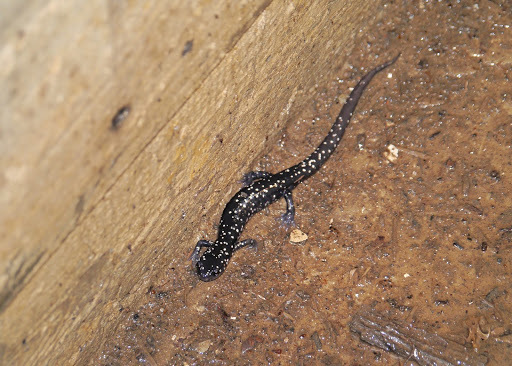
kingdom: Animalia
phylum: Chordata
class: Amphibia
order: Caudata
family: Plethodontidae
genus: Plethodon
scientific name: Plethodon glutinosus
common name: Northern slimy salamander
